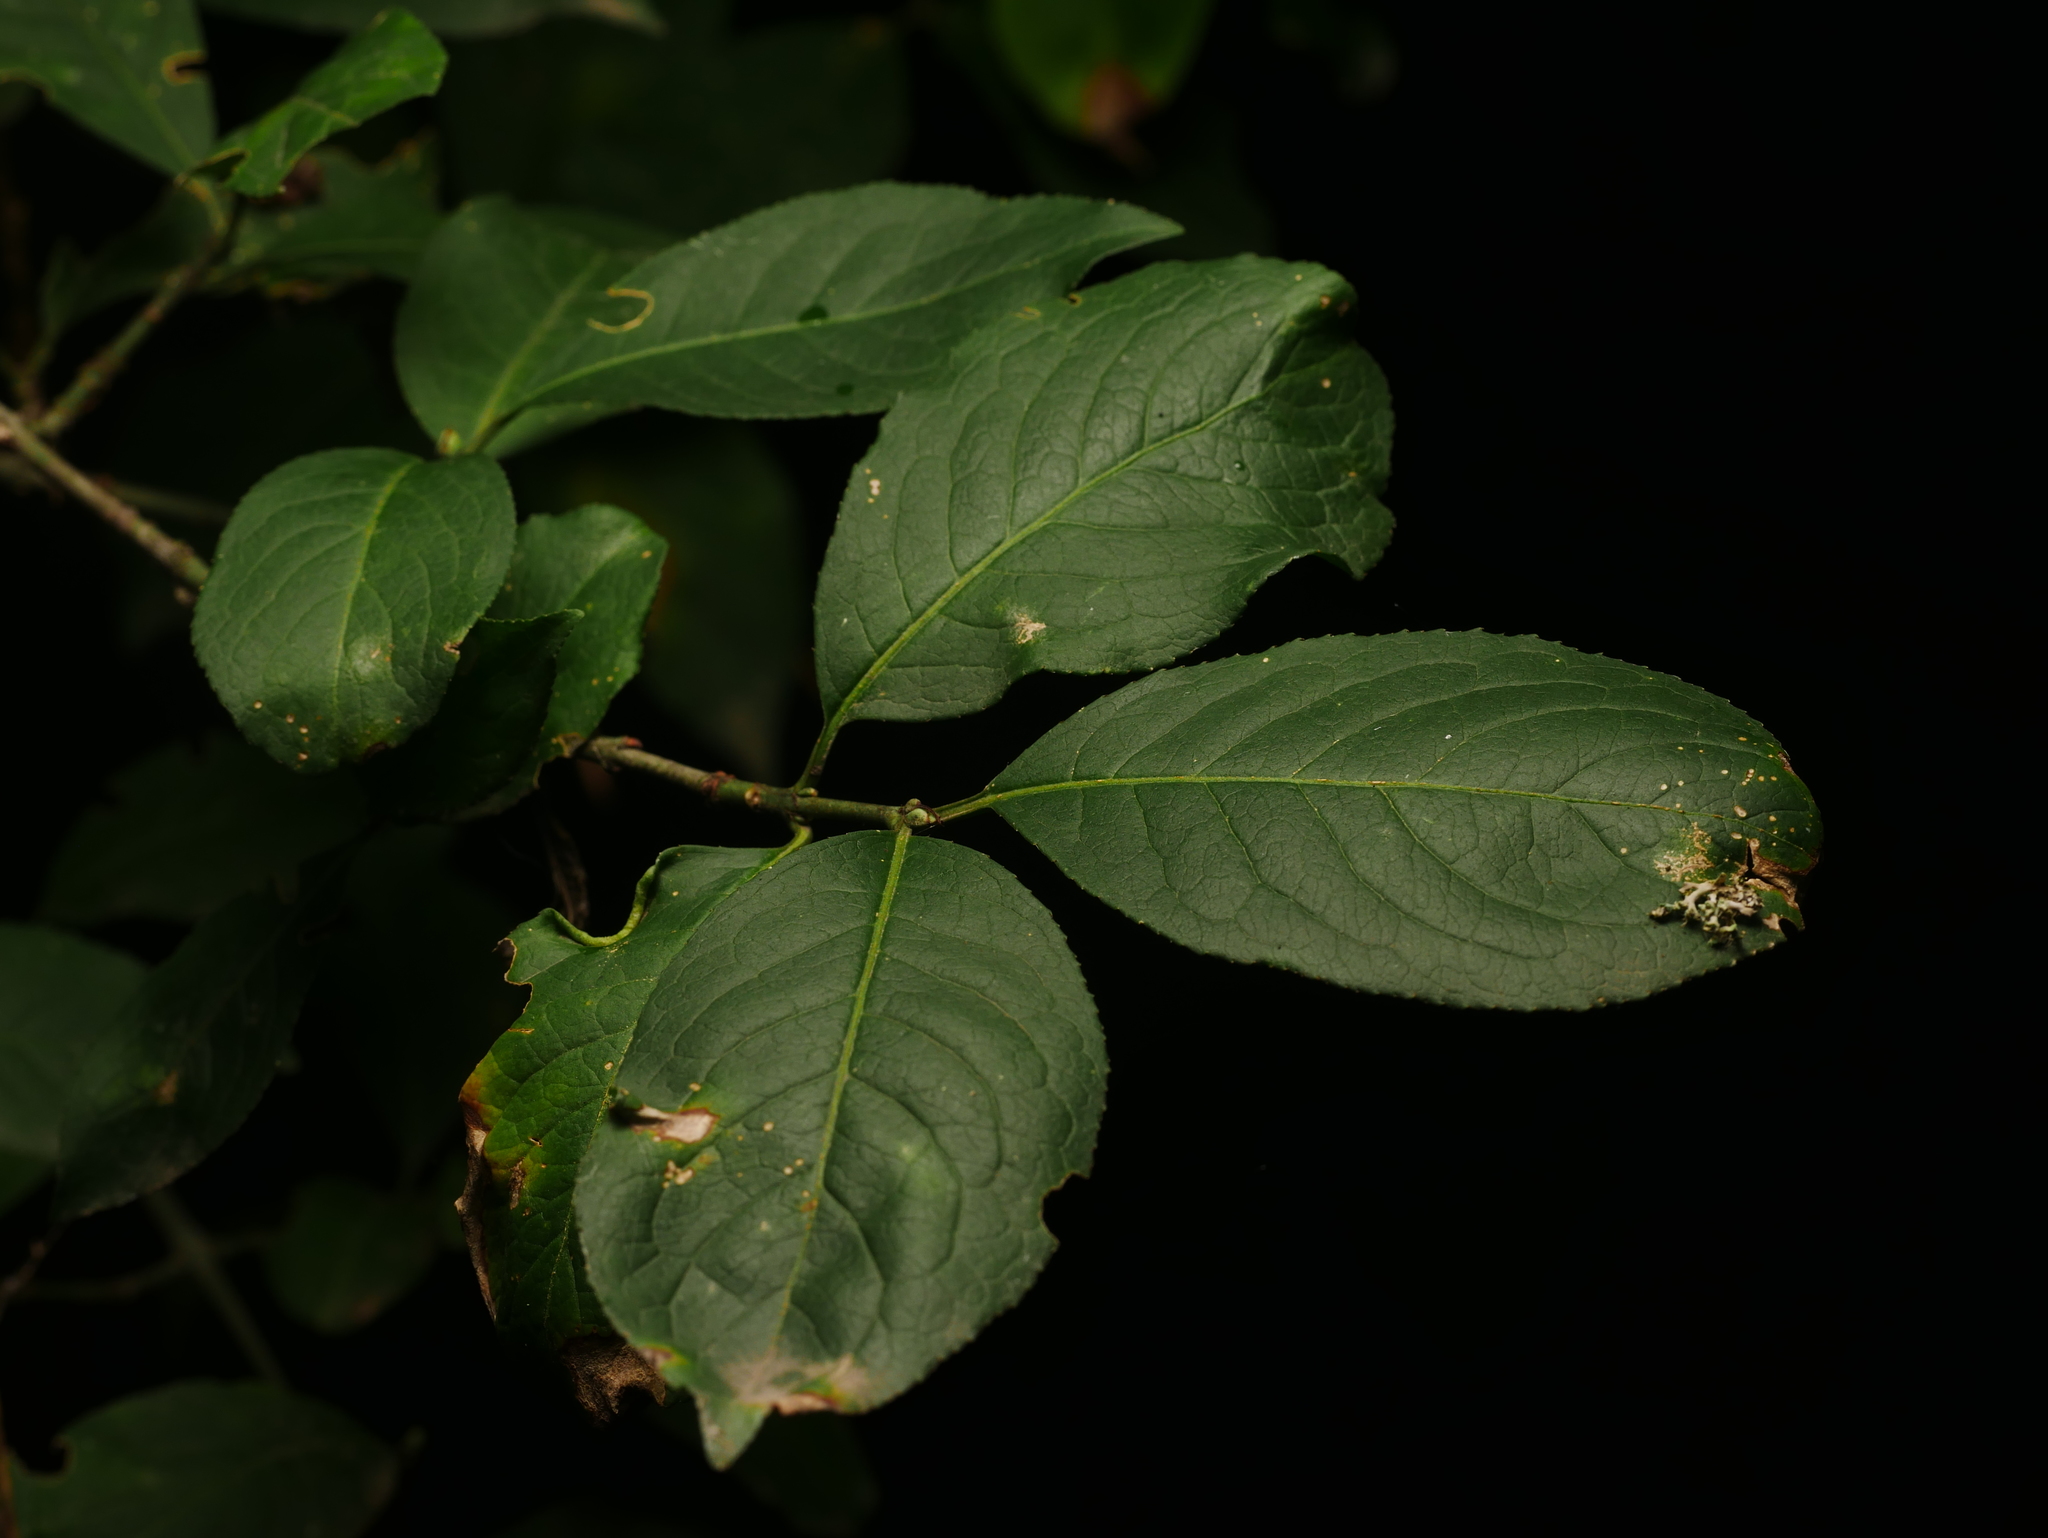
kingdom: Plantae
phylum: Tracheophyta
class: Magnoliopsida
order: Celastrales
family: Celastraceae
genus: Euonymus
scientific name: Euonymus europaeus
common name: Spindle
